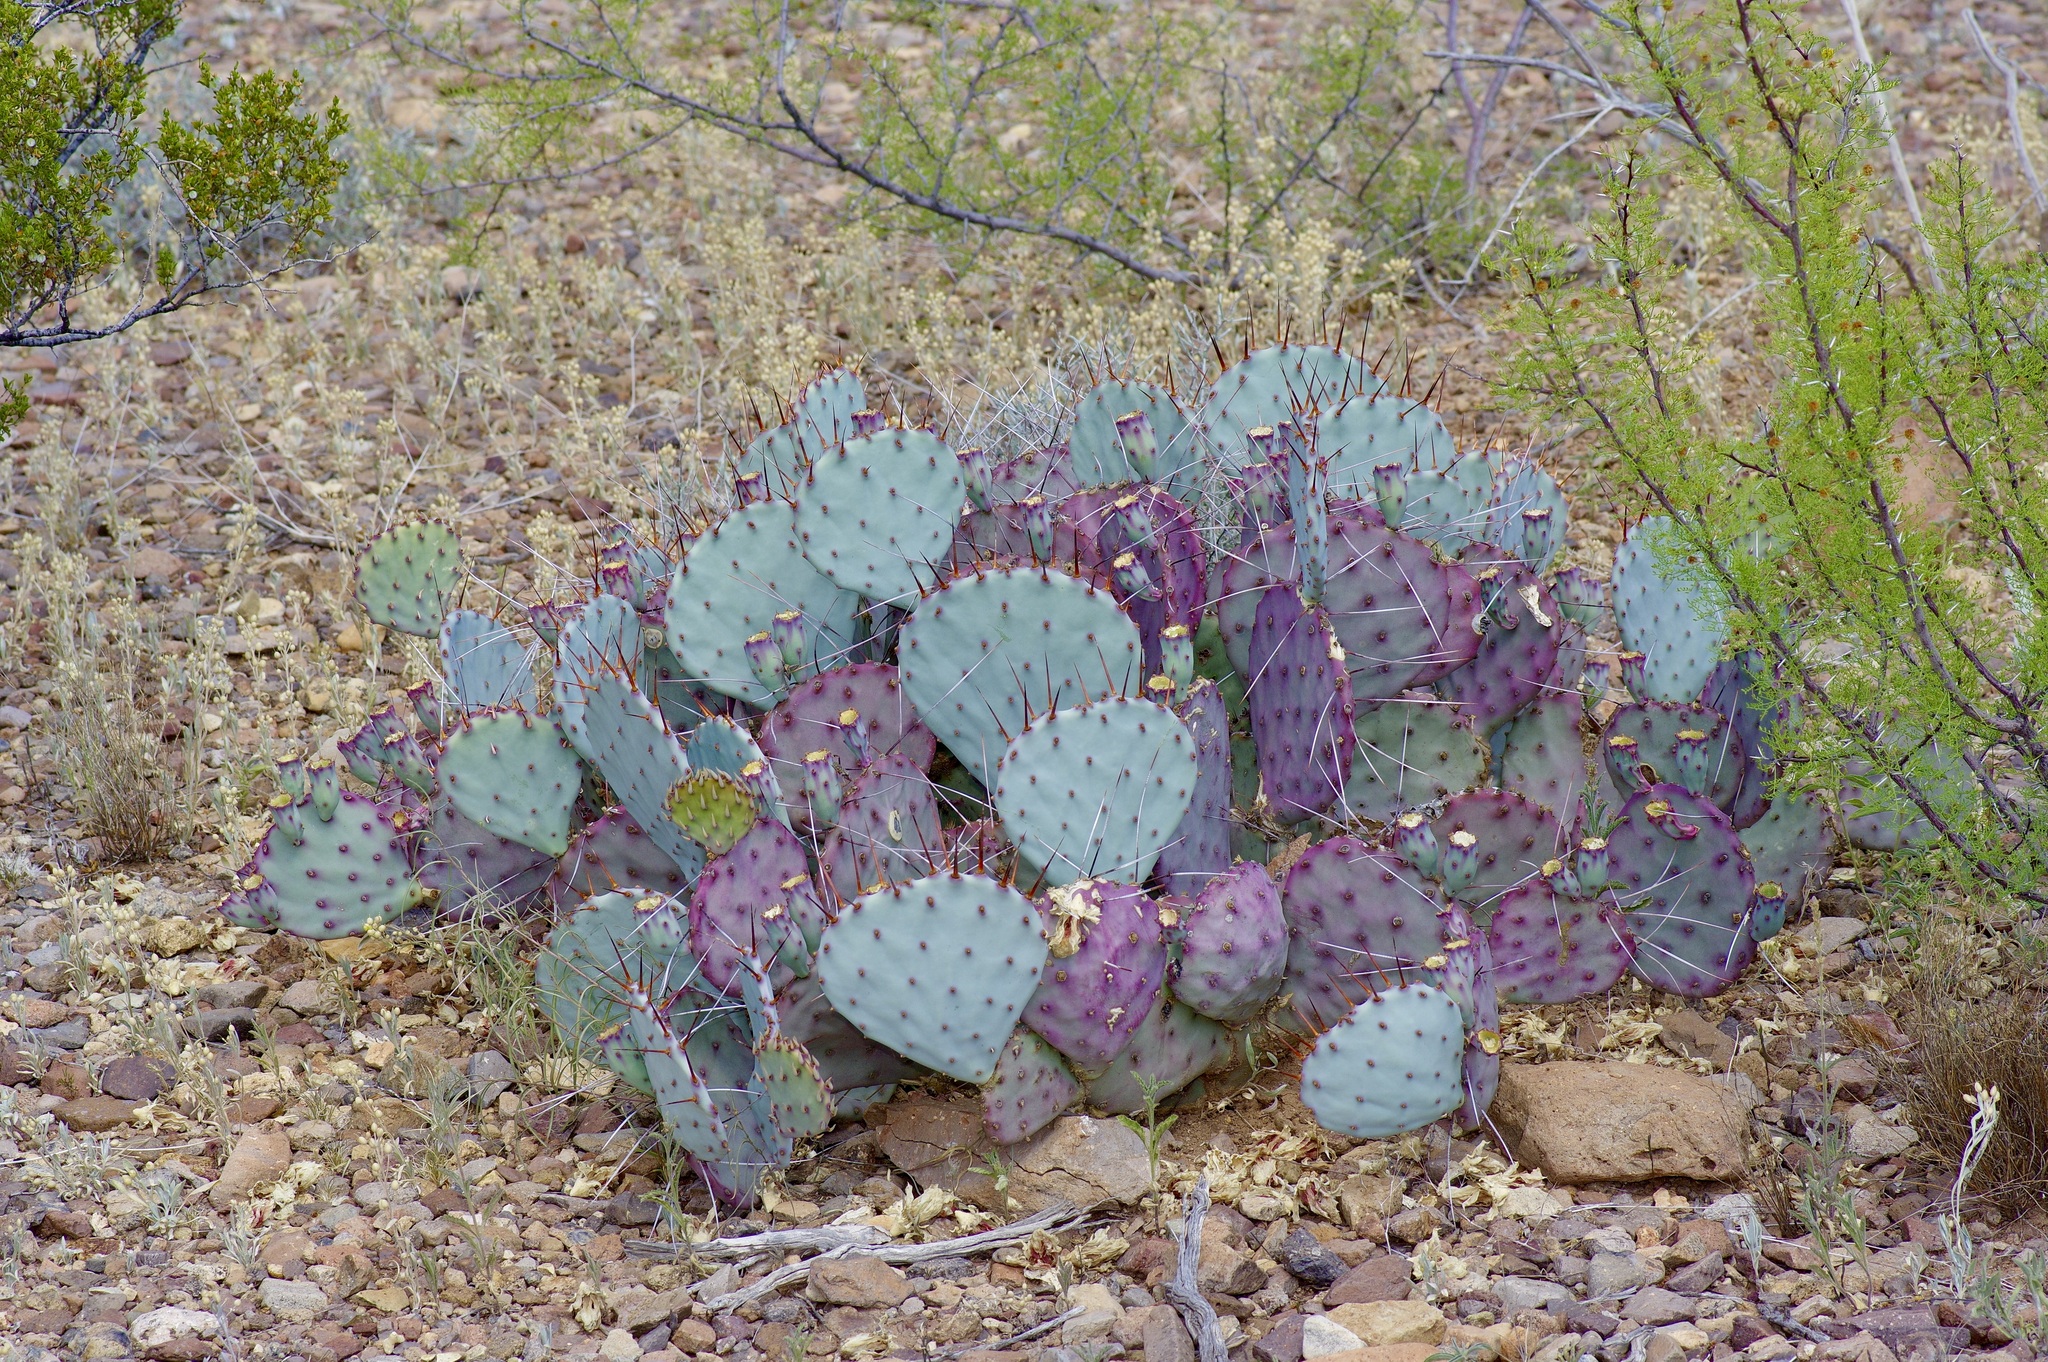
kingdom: Plantae
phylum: Tracheophyta
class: Magnoliopsida
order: Caryophyllales
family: Cactaceae
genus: Opuntia
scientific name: Opuntia phaeacantha
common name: New mexico prickly-pear
